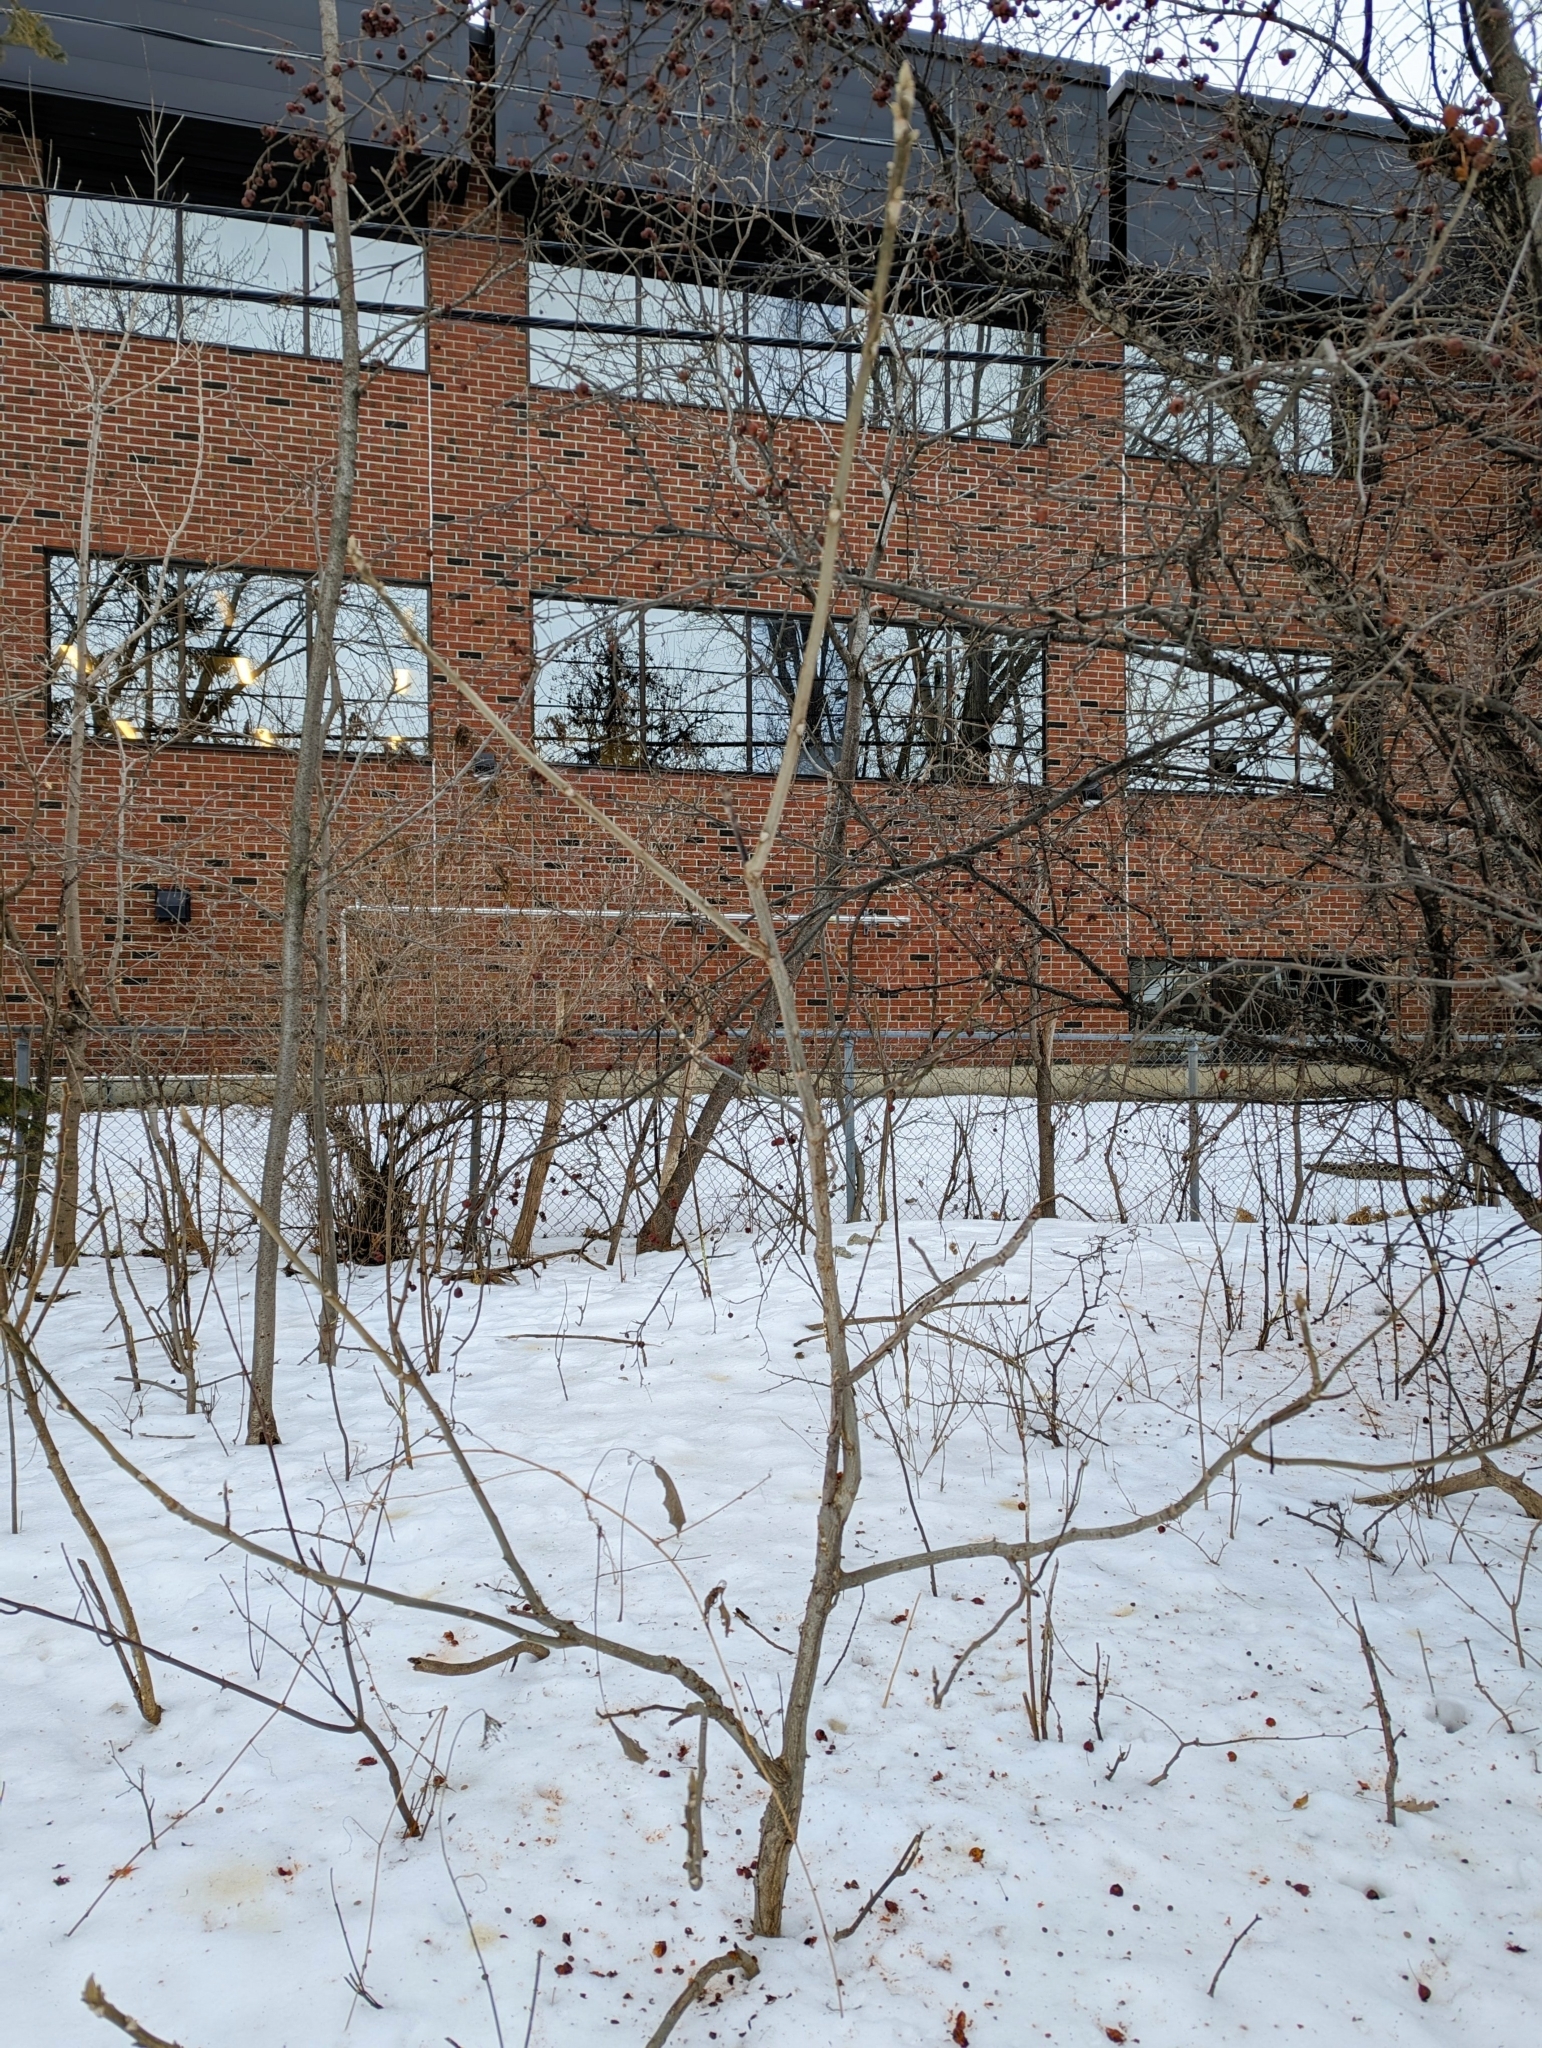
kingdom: Plantae
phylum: Tracheophyta
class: Magnoliopsida
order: Fagales
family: Juglandaceae
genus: Juglans
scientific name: Juglans cinerea
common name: Butternut
